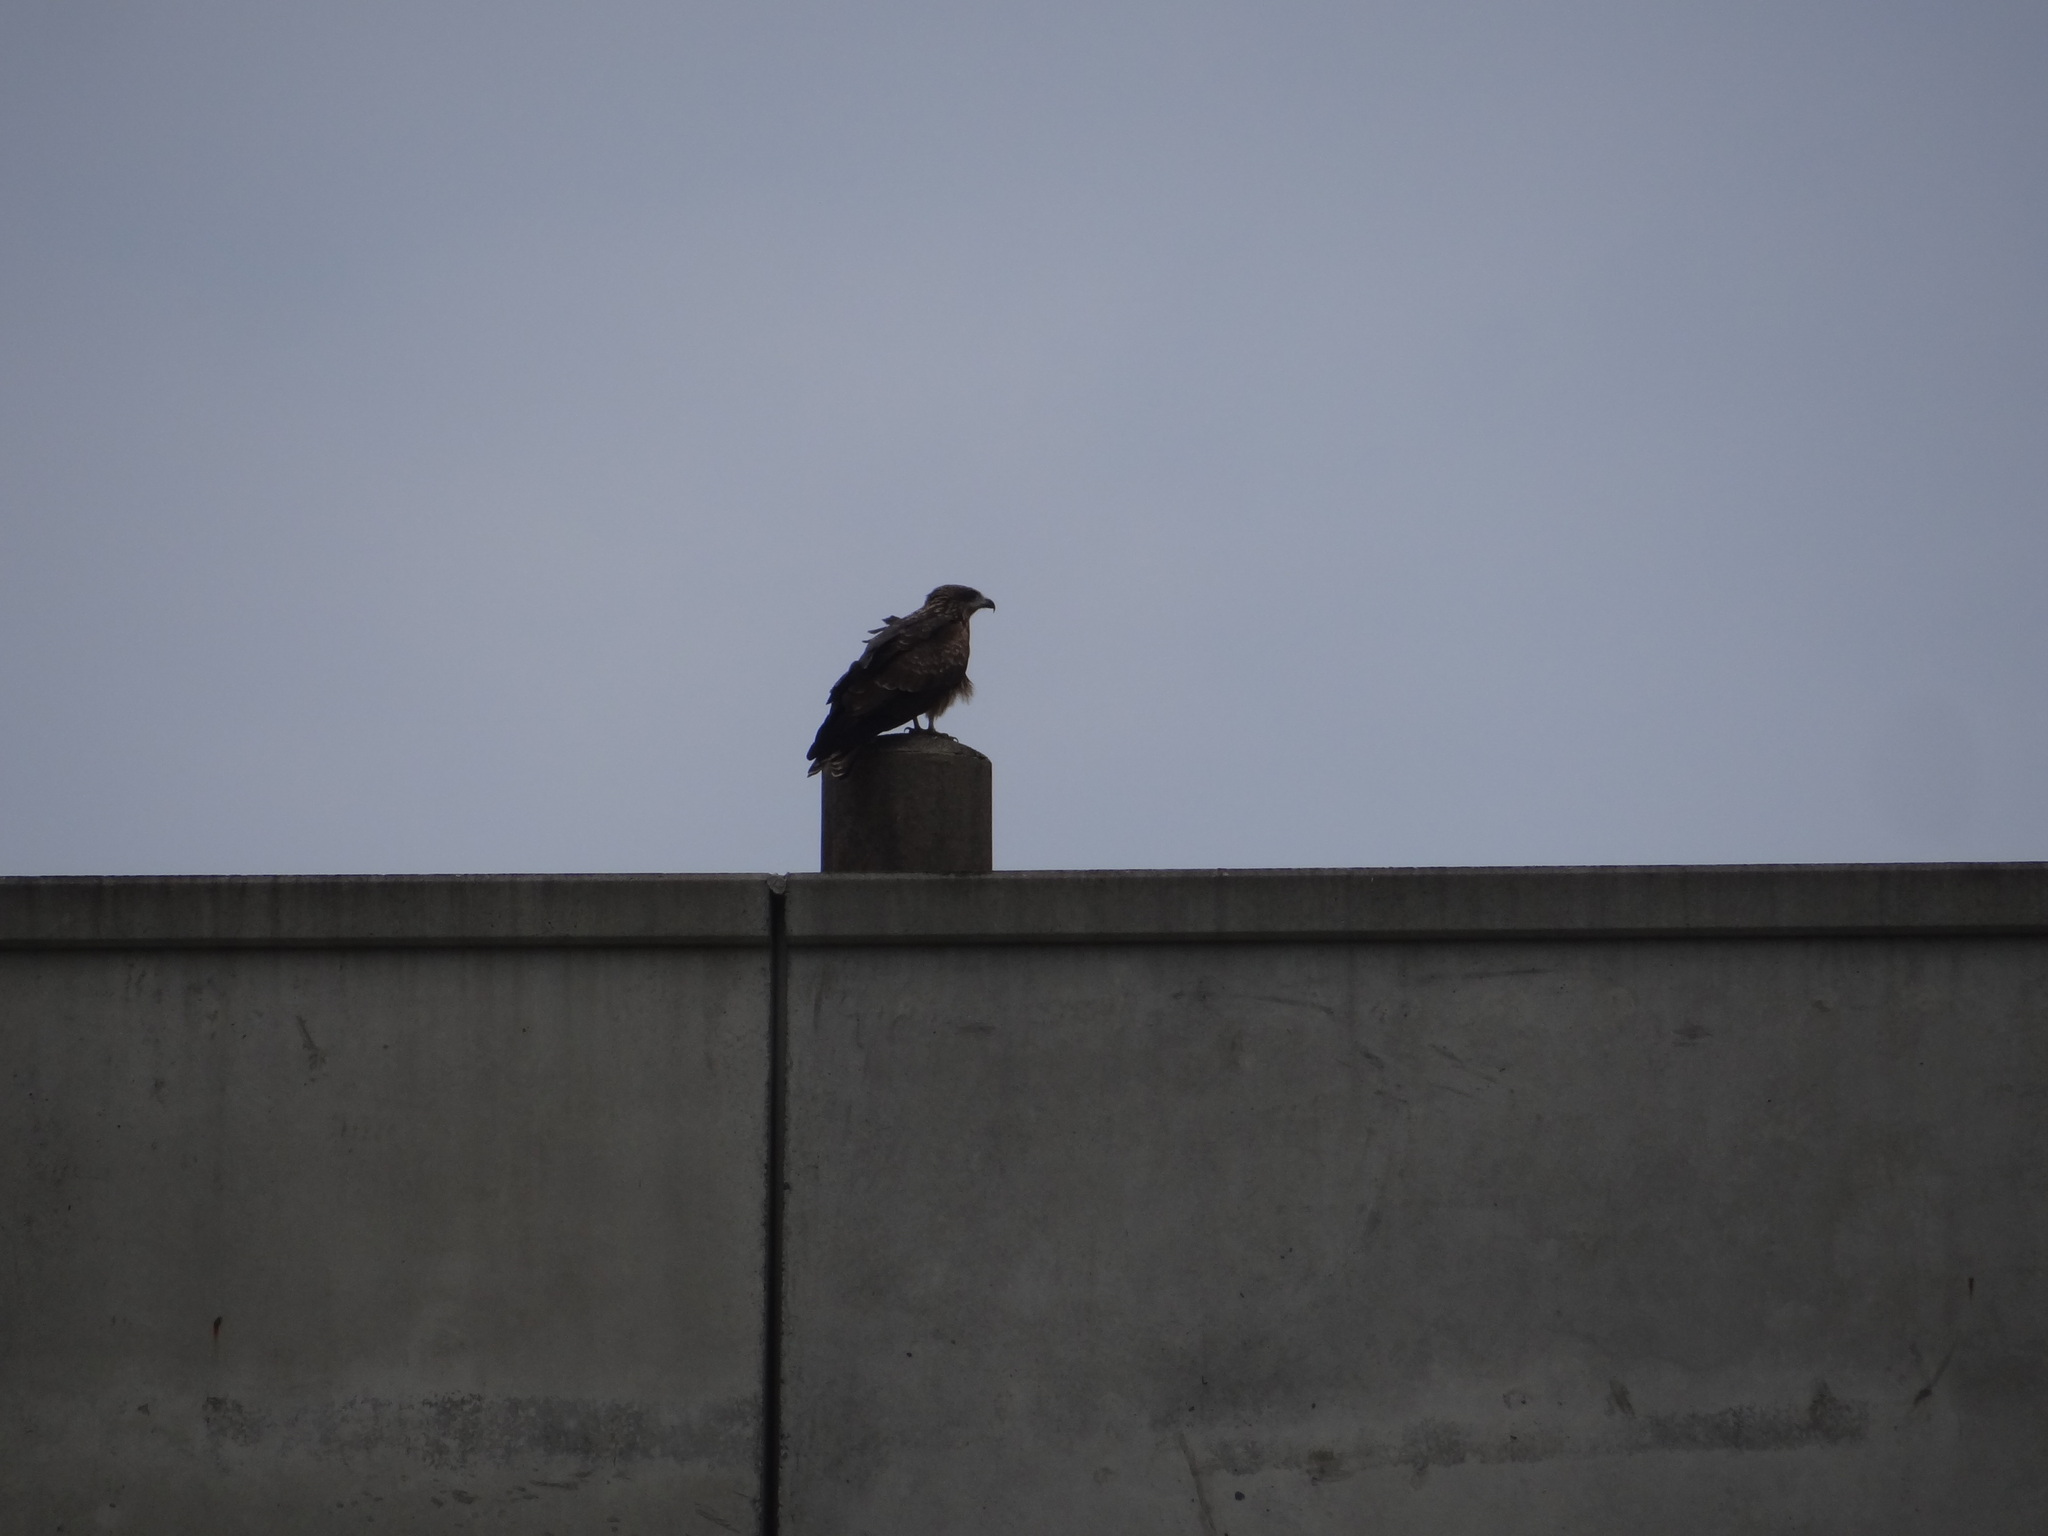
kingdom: Animalia
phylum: Chordata
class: Aves
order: Accipitriformes
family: Accipitridae
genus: Milvus
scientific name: Milvus migrans
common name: Black kite
